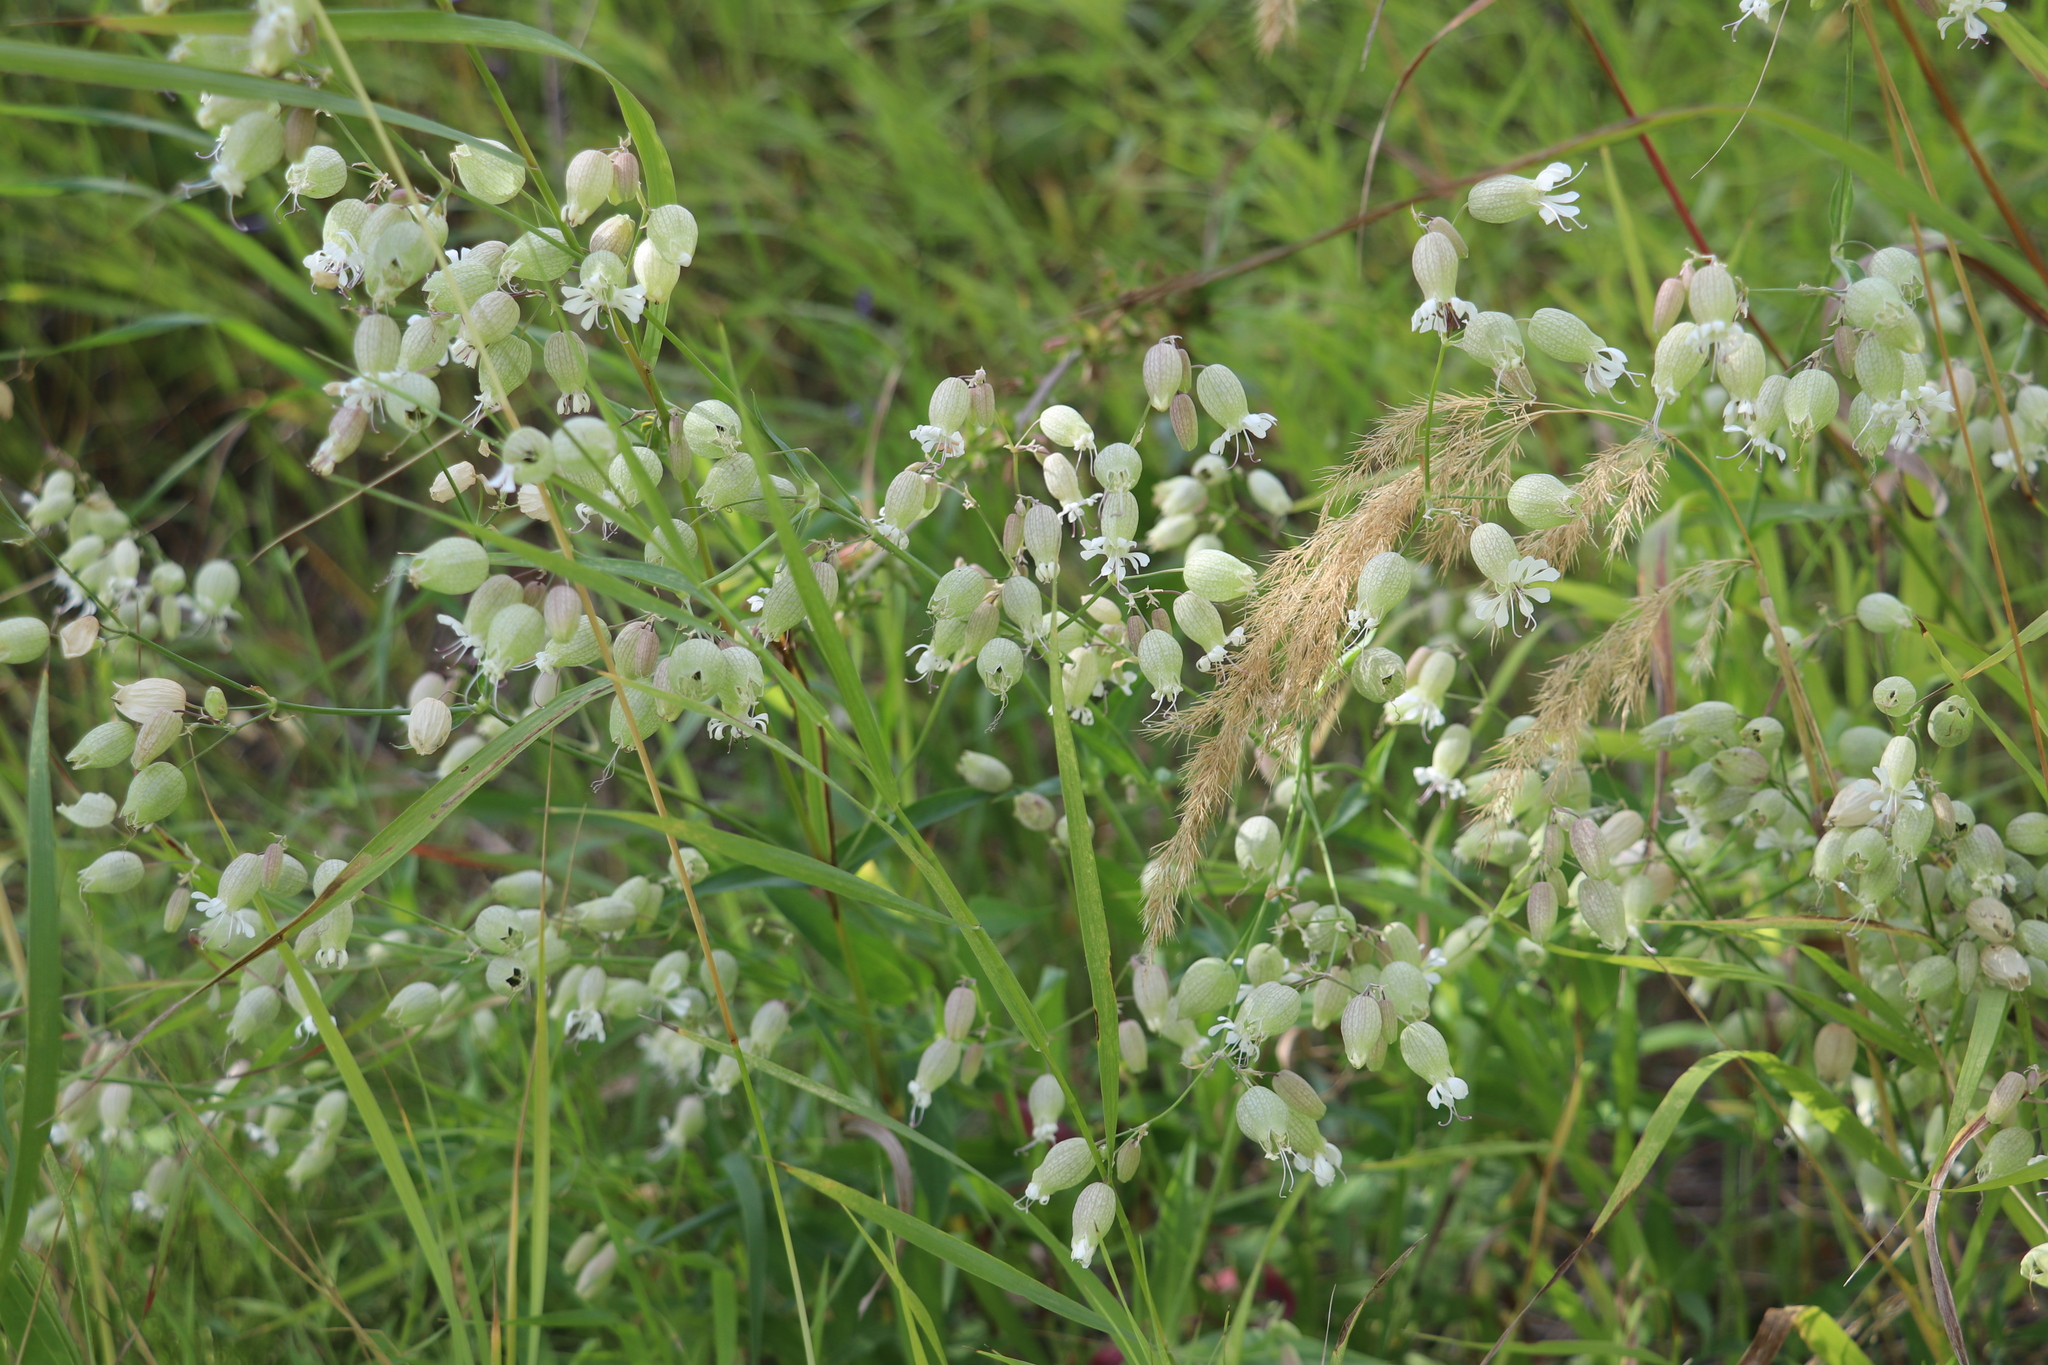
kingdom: Plantae
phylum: Tracheophyta
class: Magnoliopsida
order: Caryophyllales
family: Caryophyllaceae
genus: Silene
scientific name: Silene vulgaris
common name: Bladder campion
